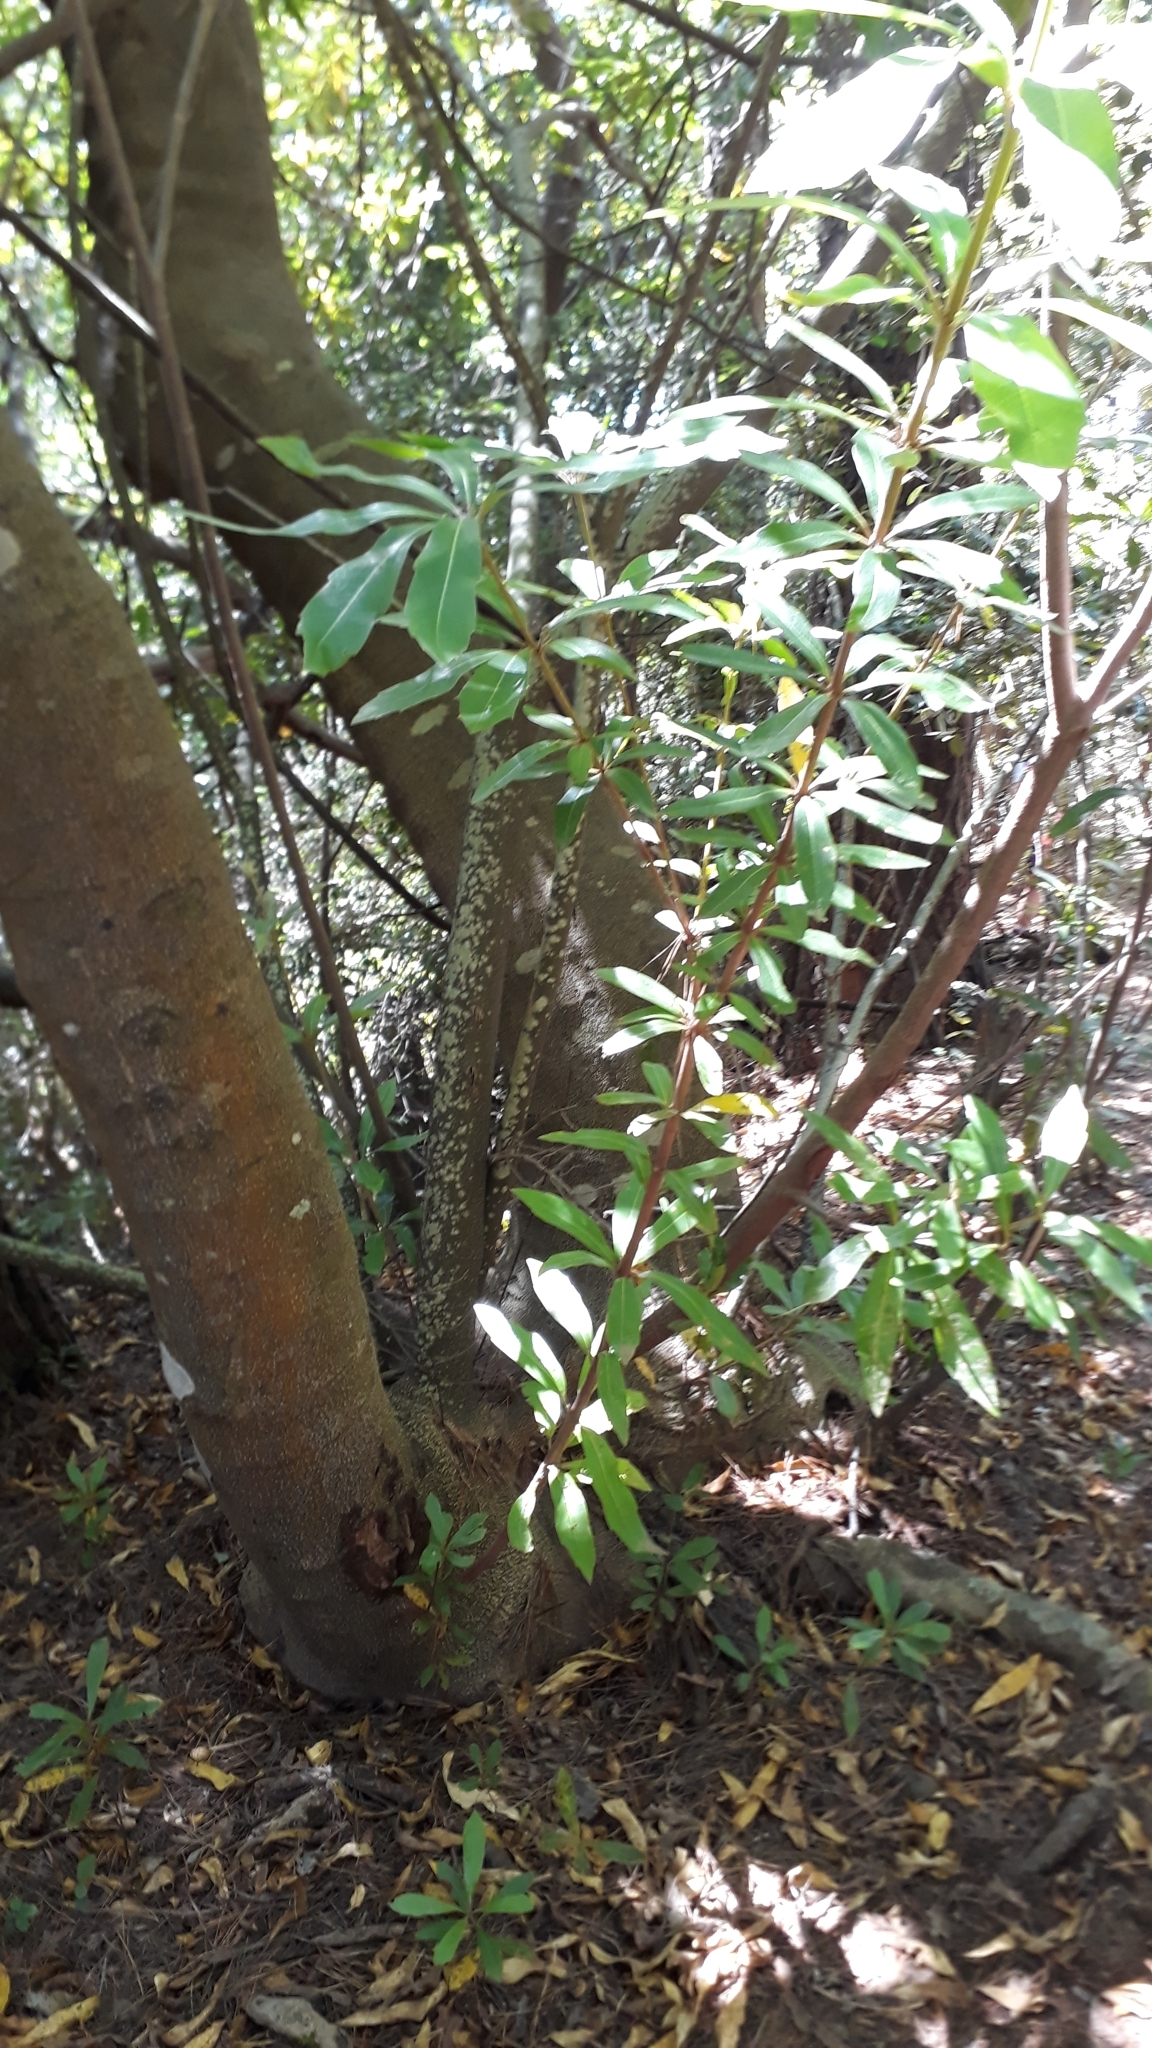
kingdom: Plantae
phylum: Tracheophyta
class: Magnoliopsida
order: Proteales
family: Proteaceae
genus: Brabejum
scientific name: Brabejum stellatifolium
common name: Wild almond
